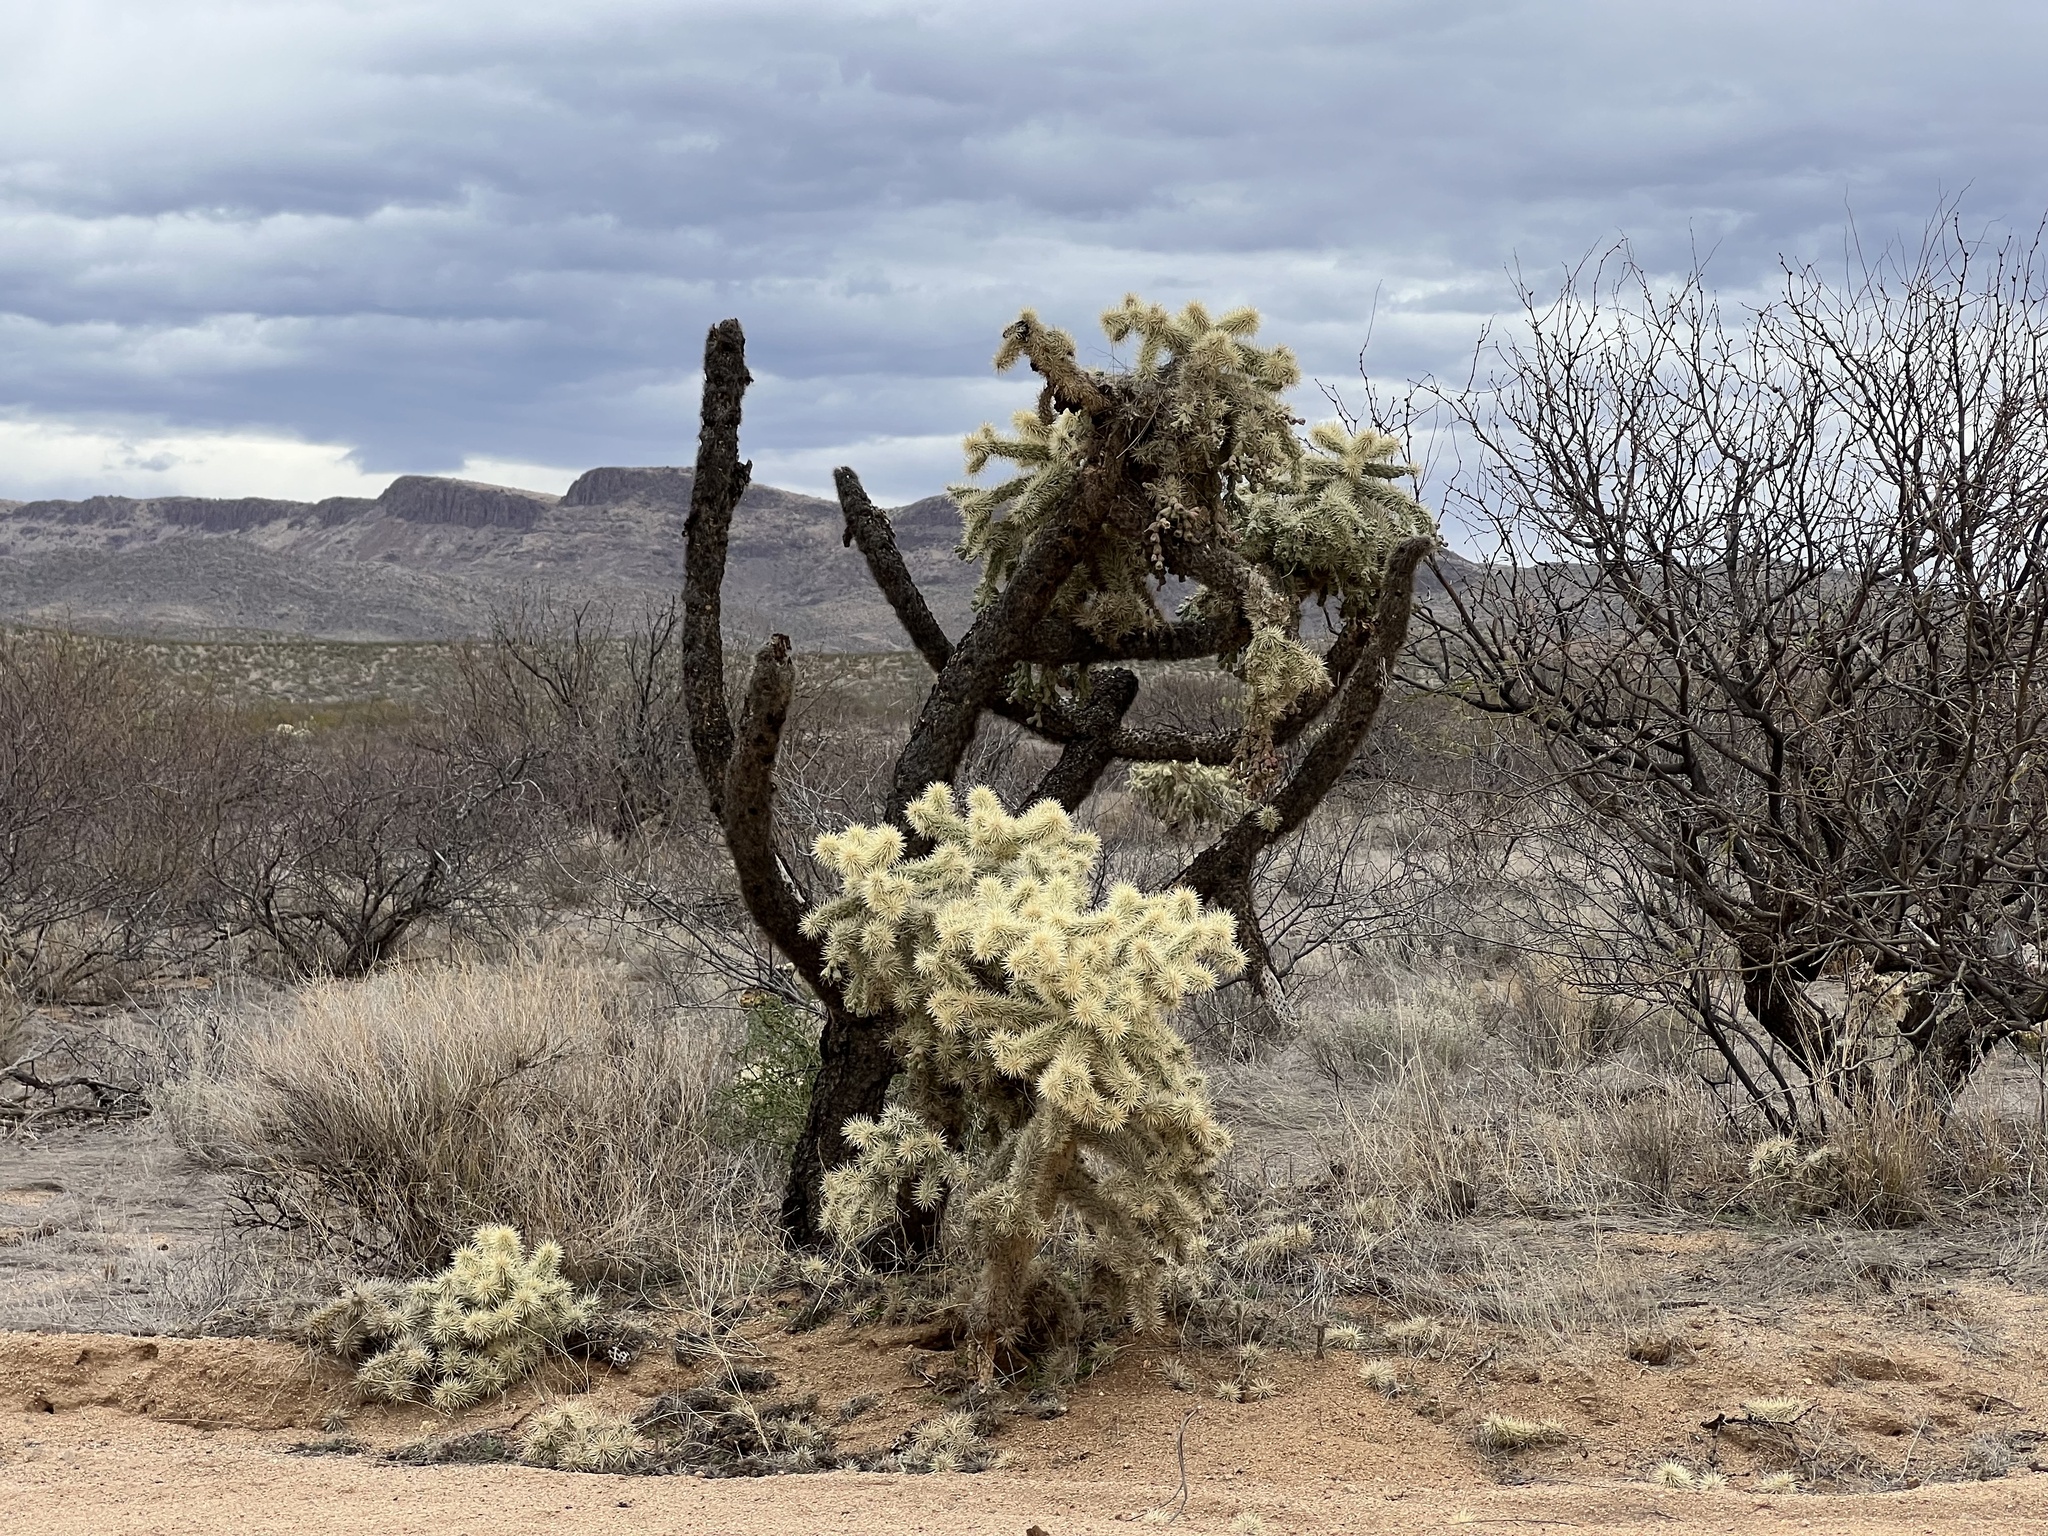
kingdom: Plantae
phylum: Tracheophyta
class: Magnoliopsida
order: Caryophyllales
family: Cactaceae
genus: Cylindropuntia
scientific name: Cylindropuntia fulgida
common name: Jumping cholla
